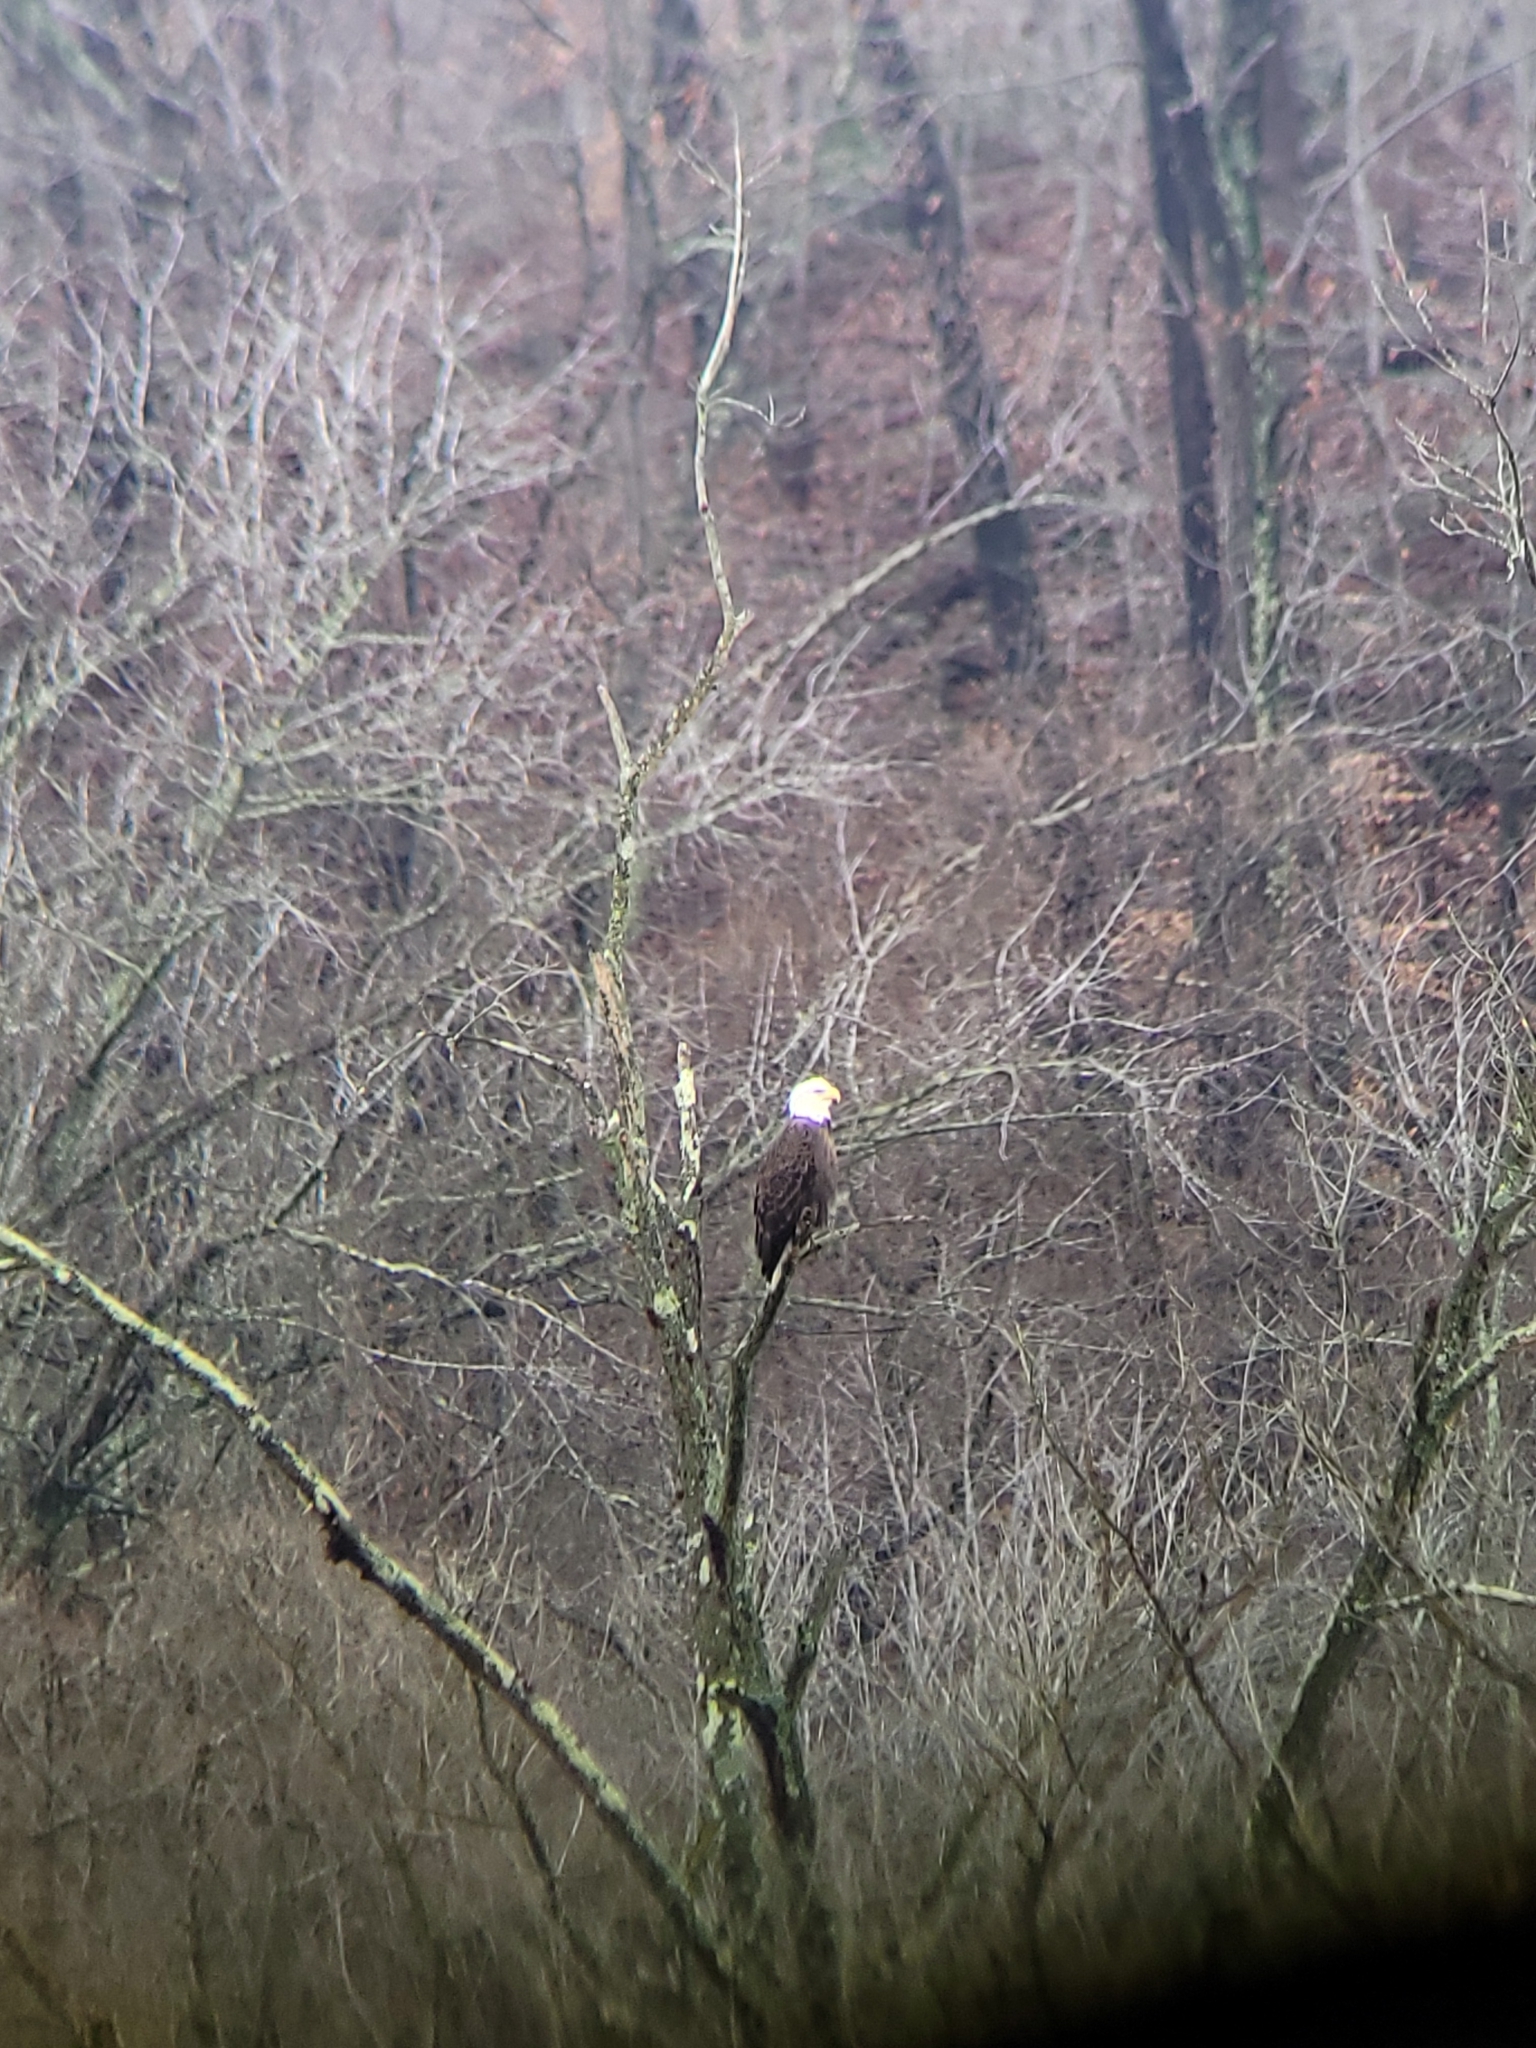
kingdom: Animalia
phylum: Chordata
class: Aves
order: Accipitriformes
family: Accipitridae
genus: Haliaeetus
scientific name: Haliaeetus leucocephalus
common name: Bald eagle
